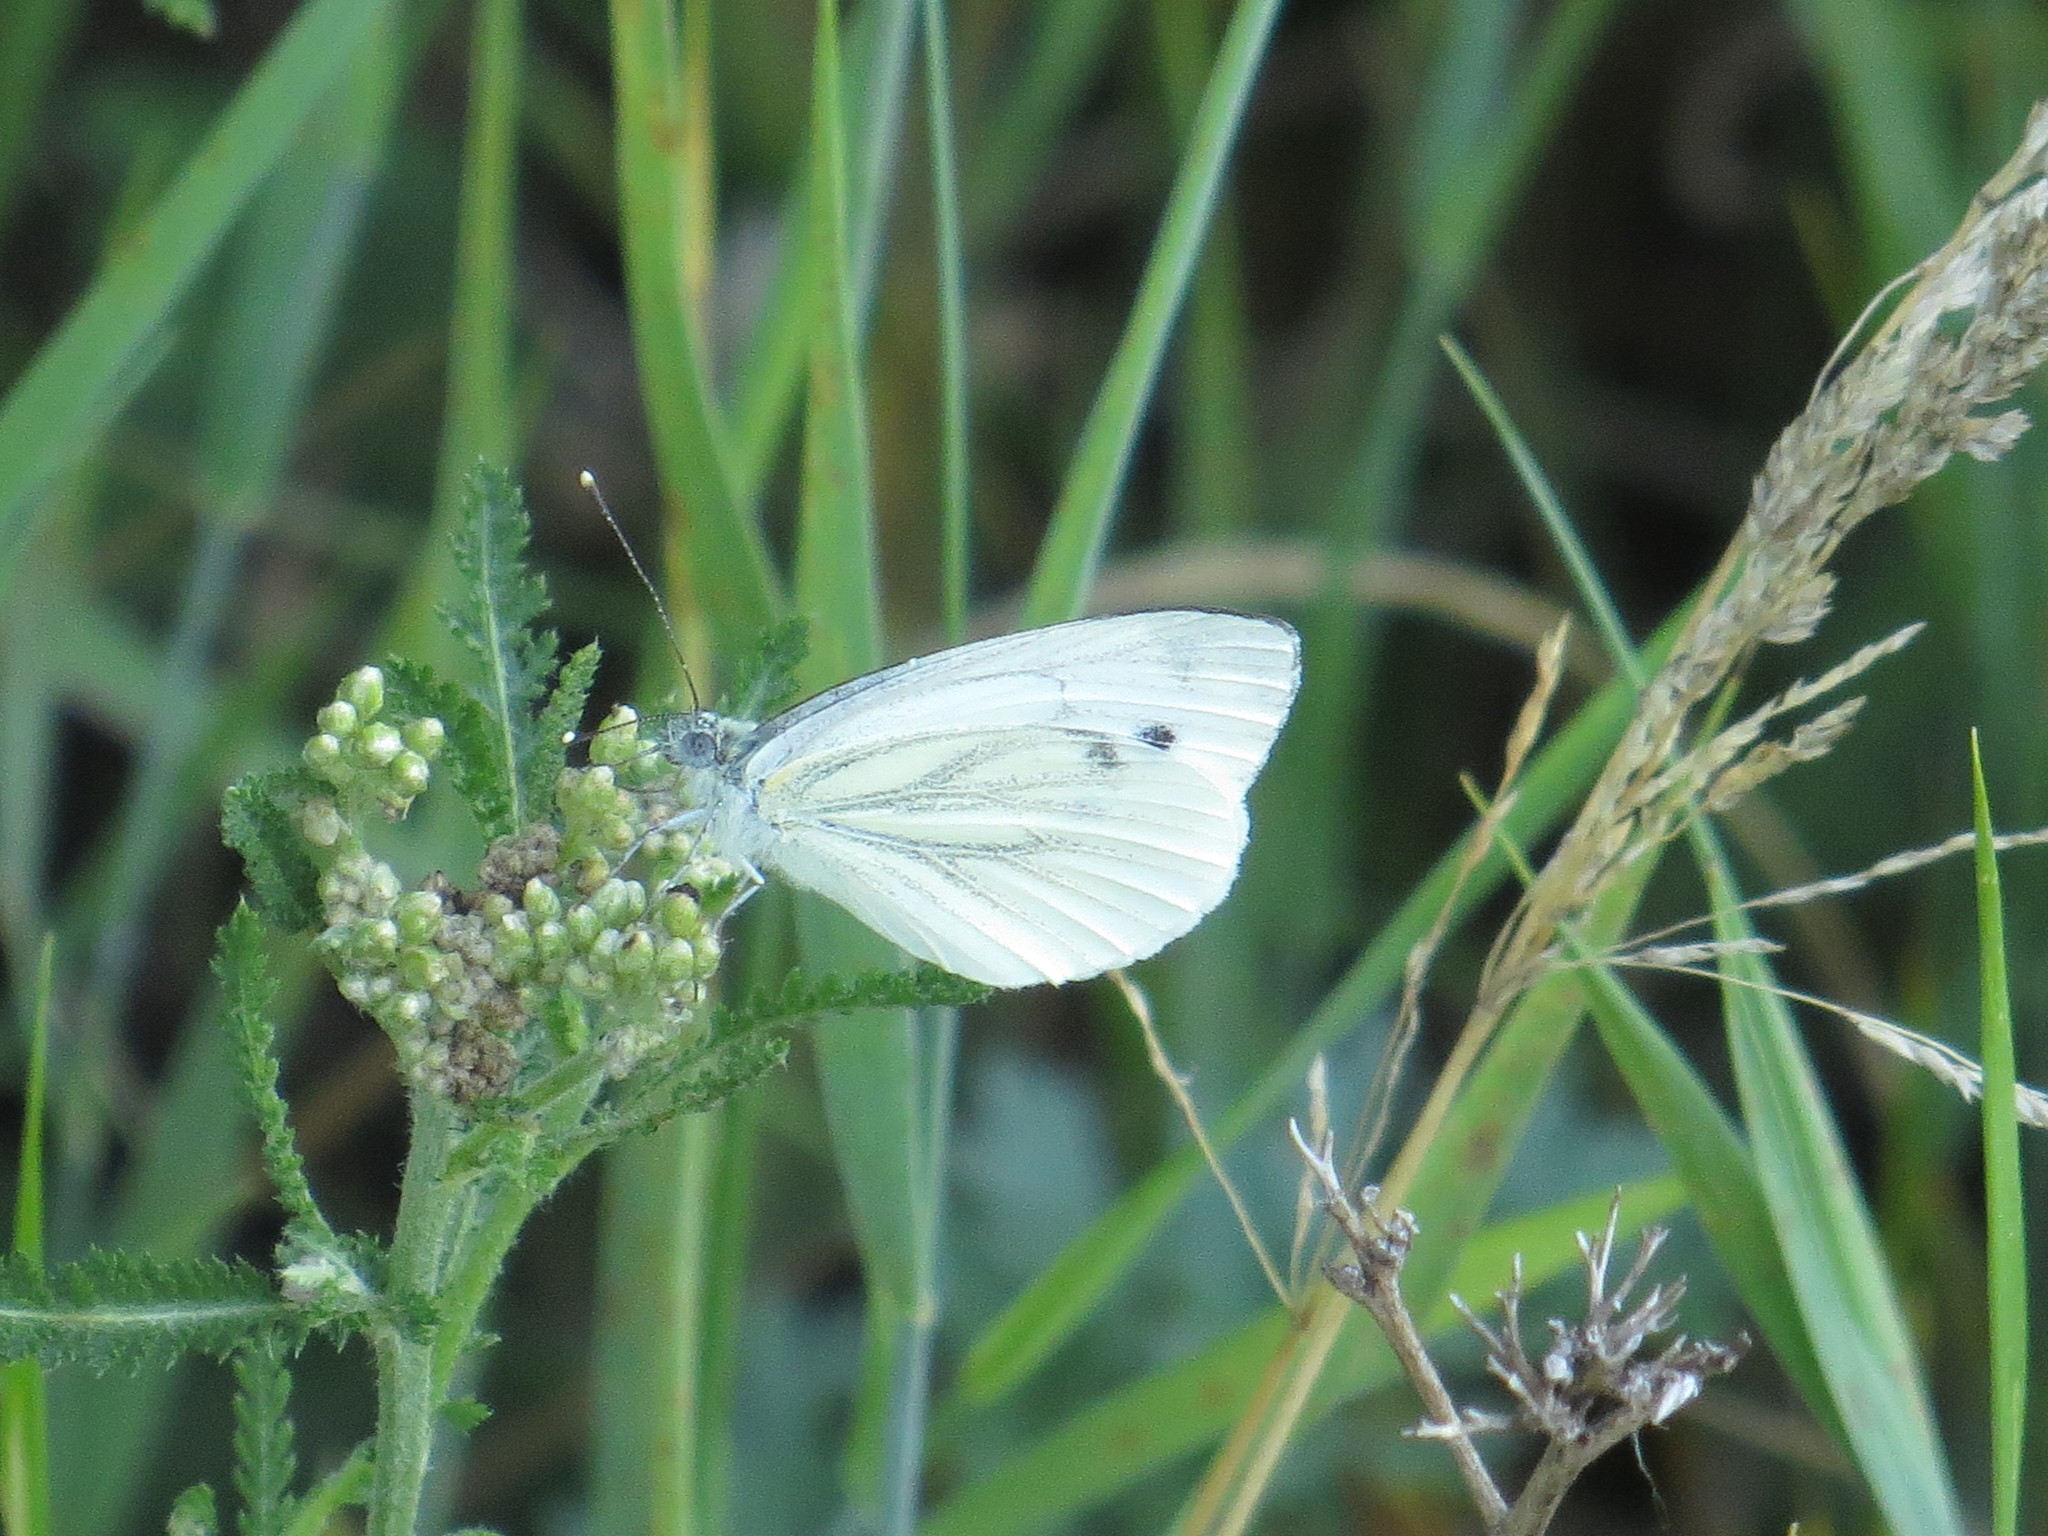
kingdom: Animalia
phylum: Arthropoda
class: Insecta
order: Lepidoptera
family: Pieridae
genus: Pieris
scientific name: Pieris napi
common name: Green-veined white
